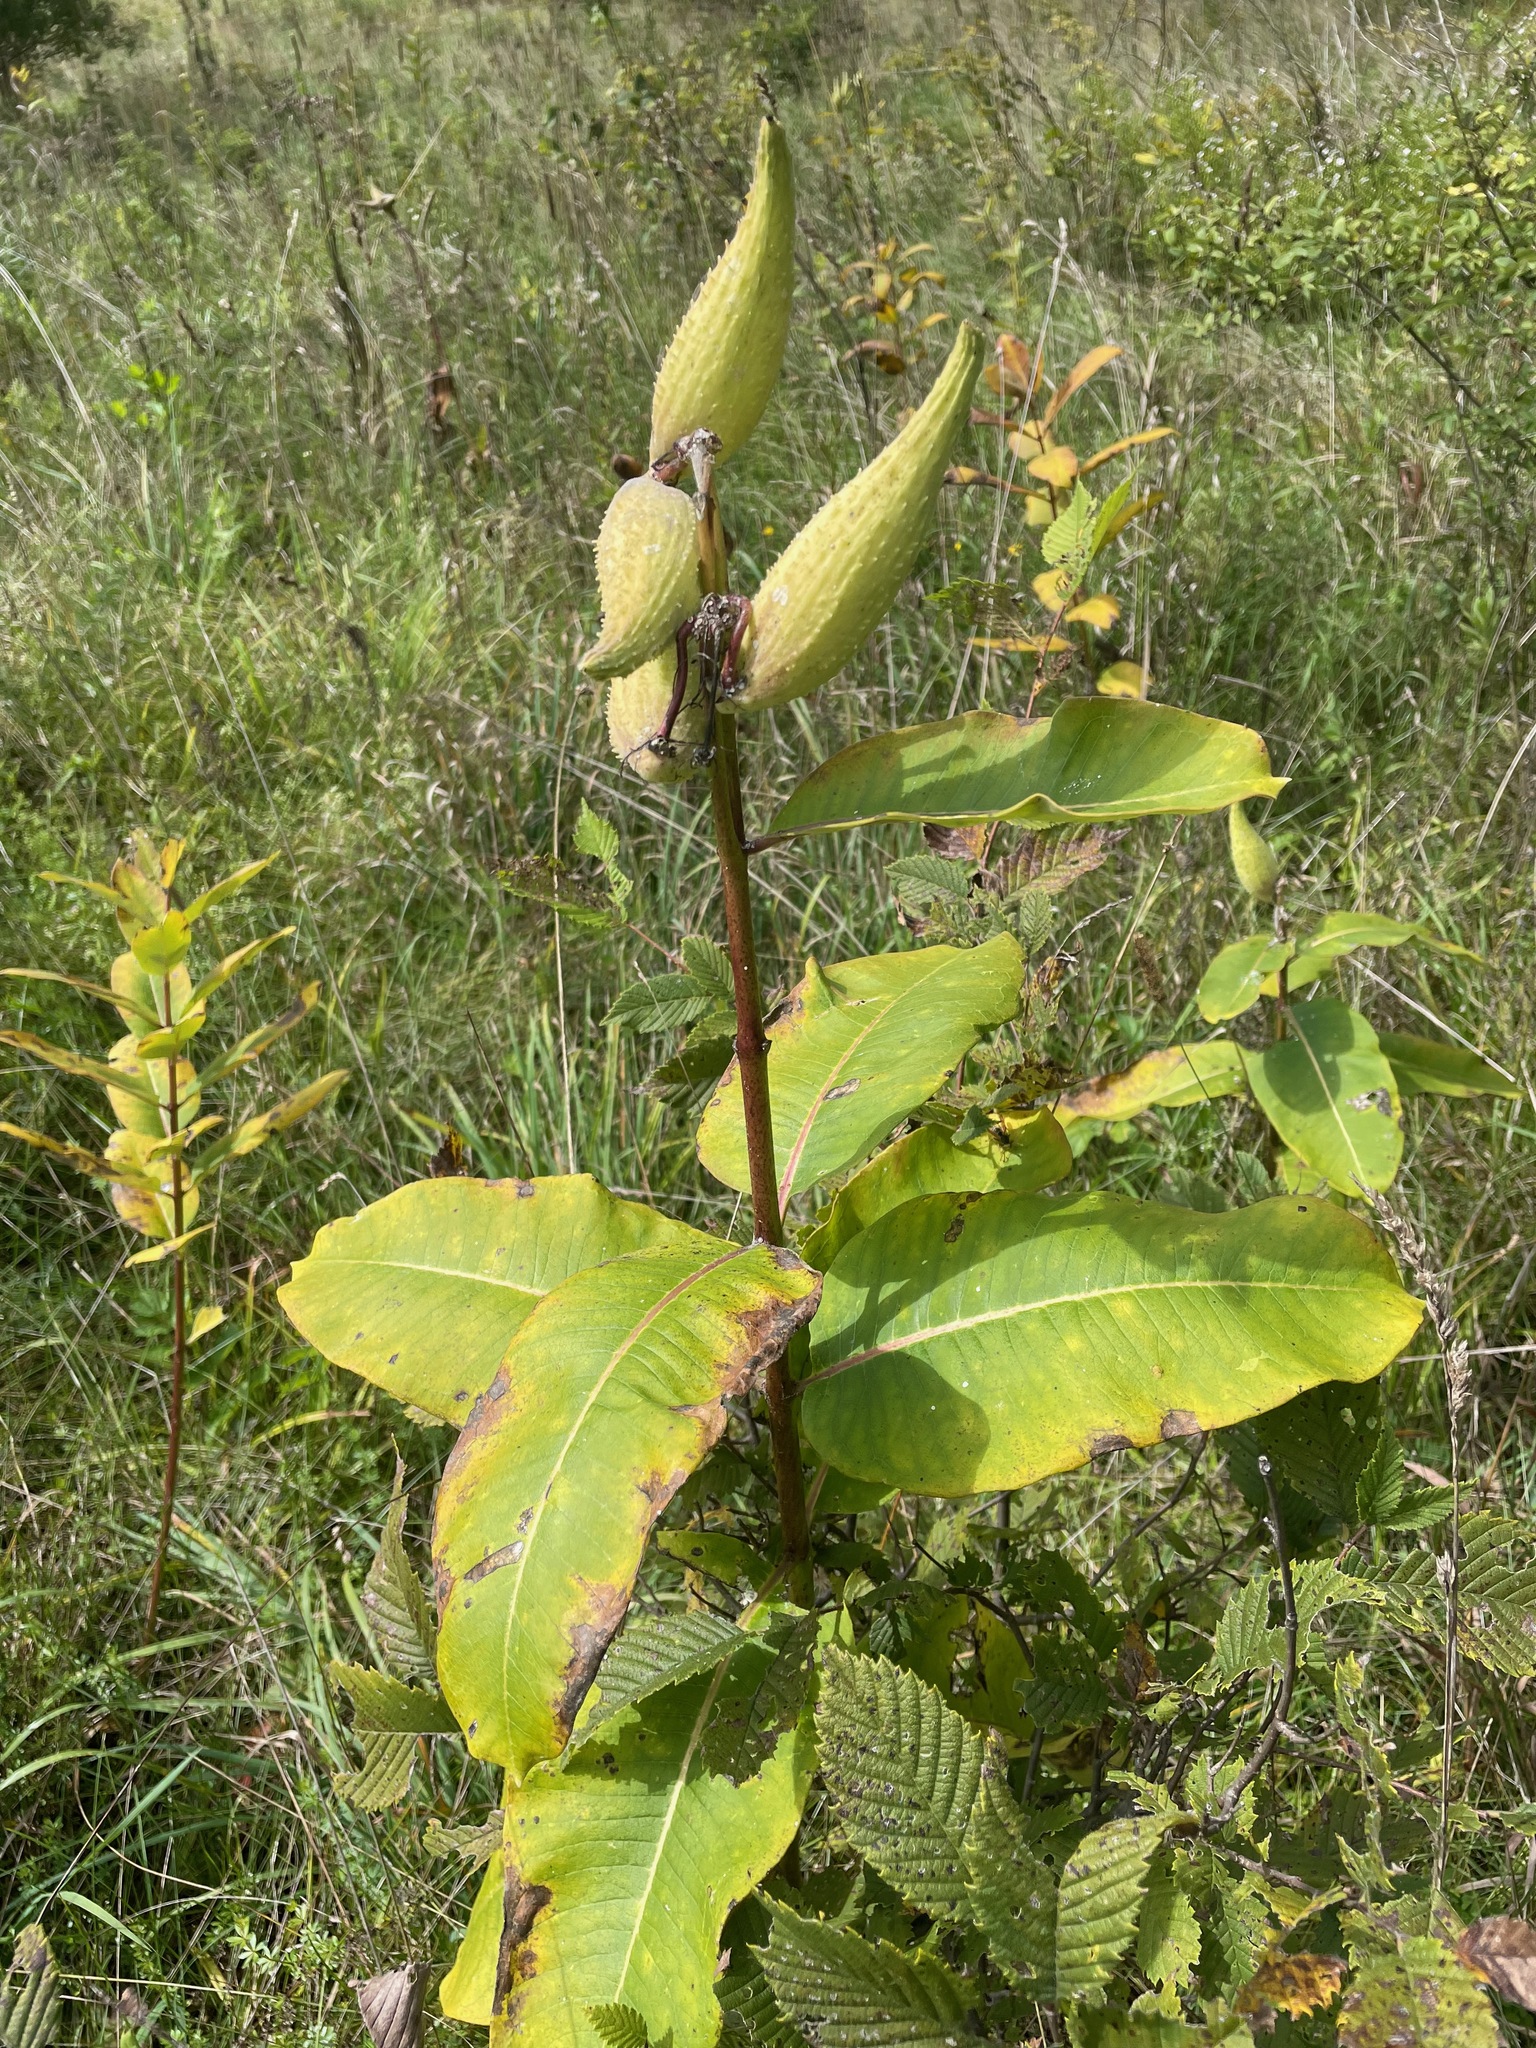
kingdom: Plantae
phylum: Tracheophyta
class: Magnoliopsida
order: Gentianales
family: Apocynaceae
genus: Asclepias
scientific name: Asclepias syriaca
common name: Common milkweed
